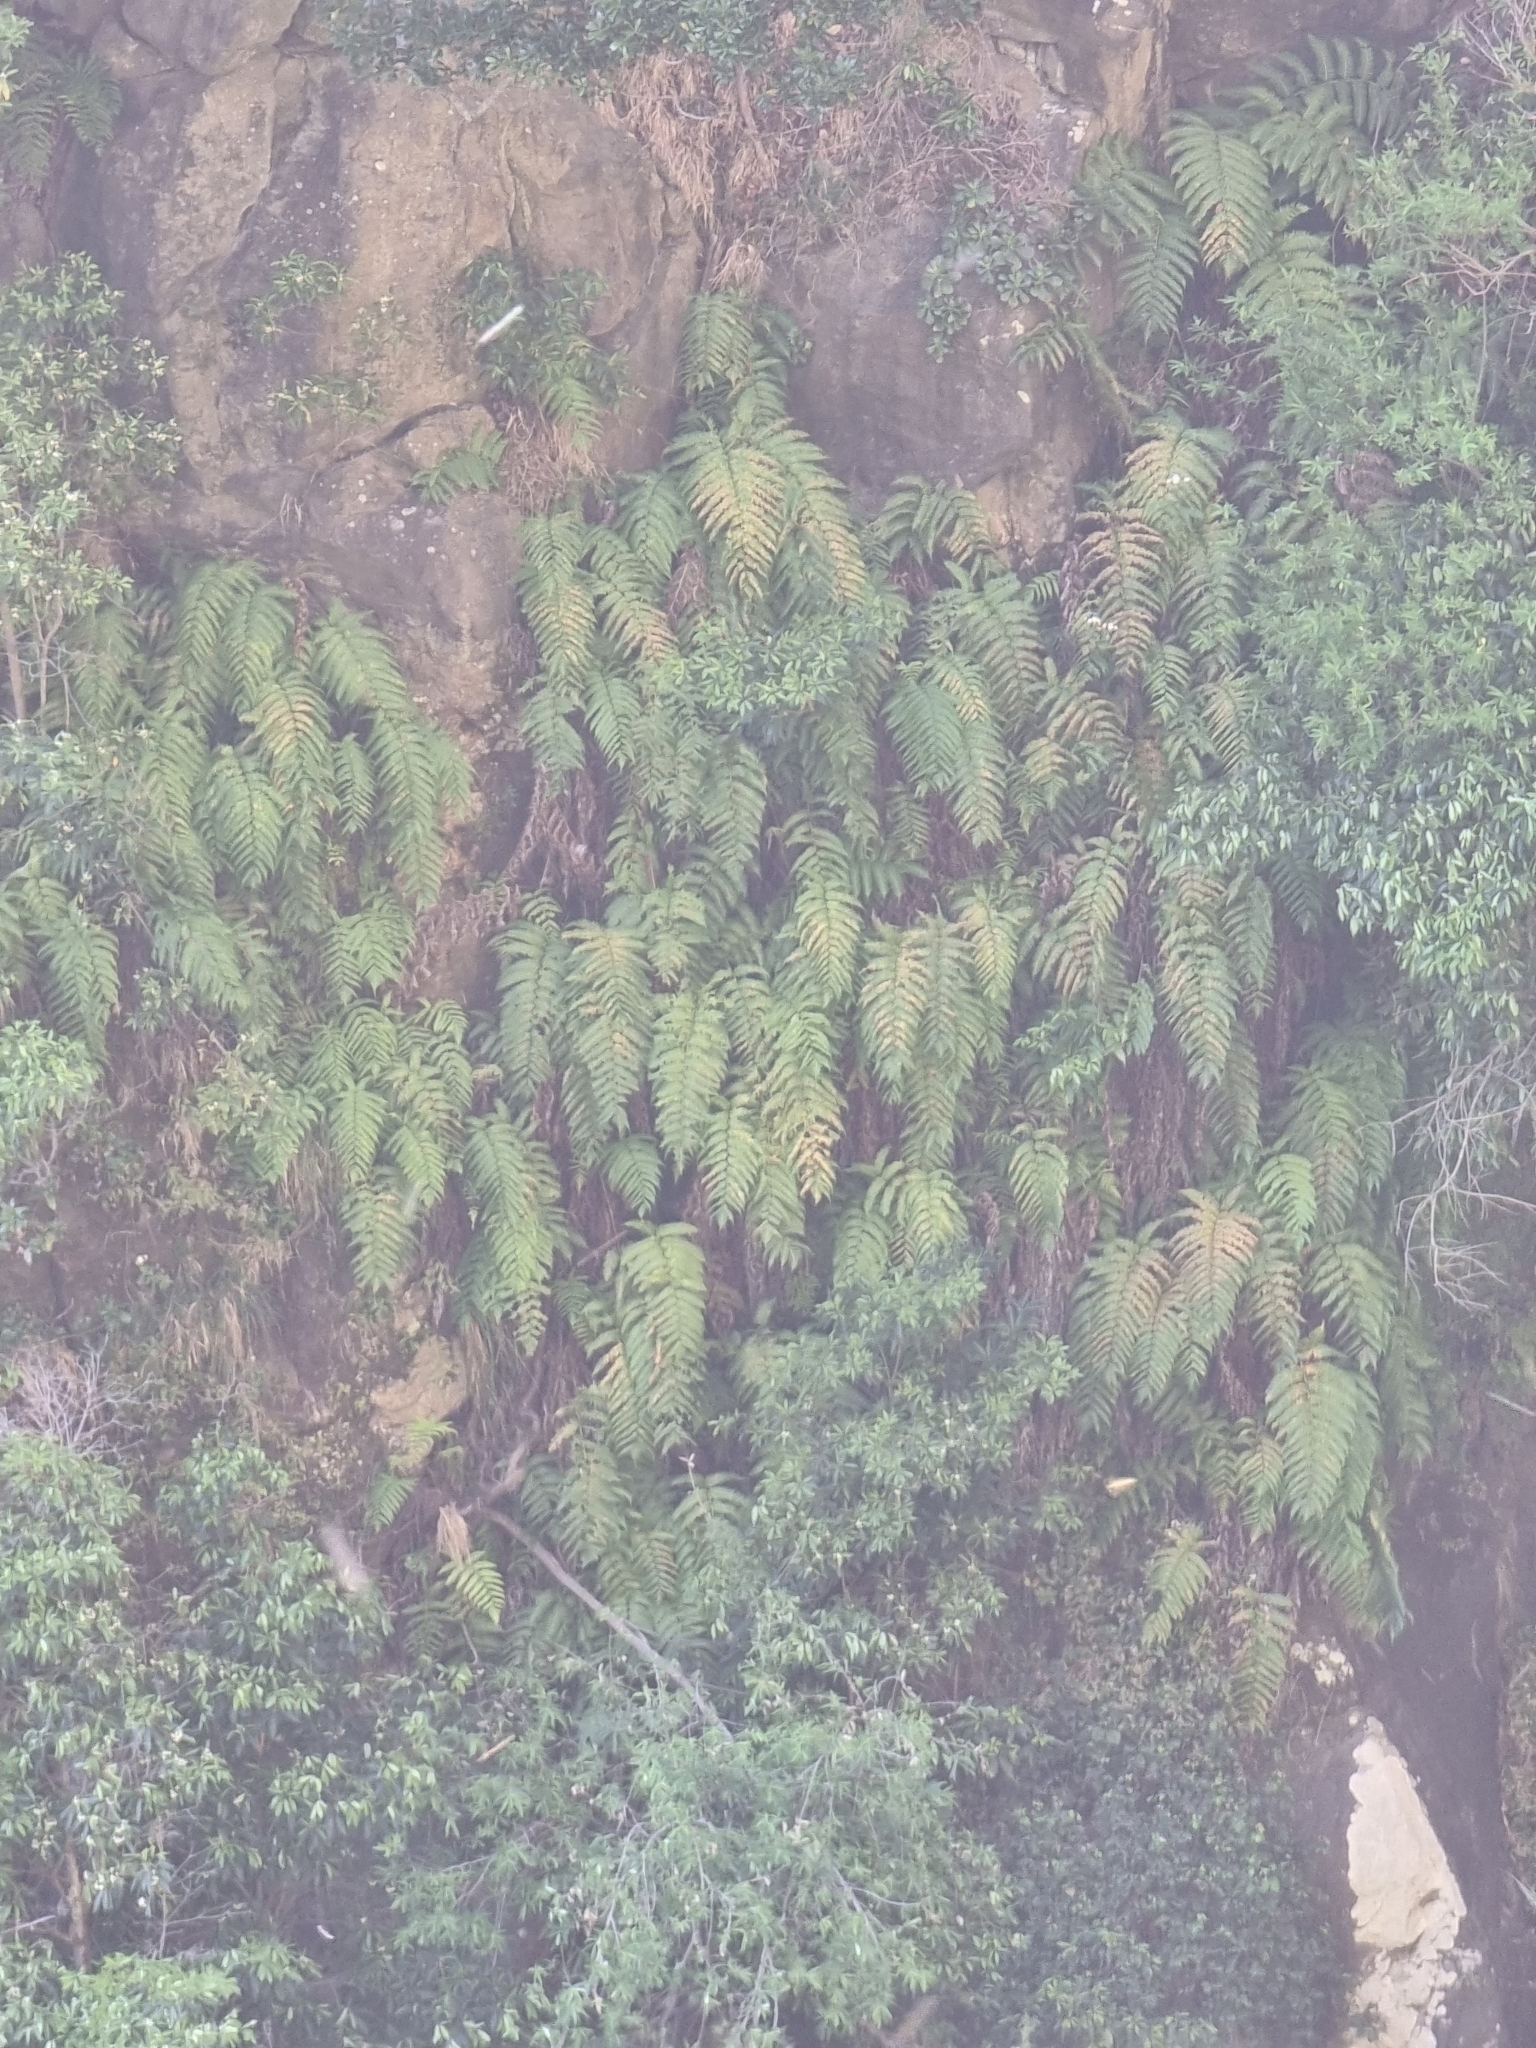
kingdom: Plantae
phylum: Tracheophyta
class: Polypodiopsida
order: Polypodiales
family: Blechnaceae
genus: Woodwardia
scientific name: Woodwardia radicans
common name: Rooting chainfern
